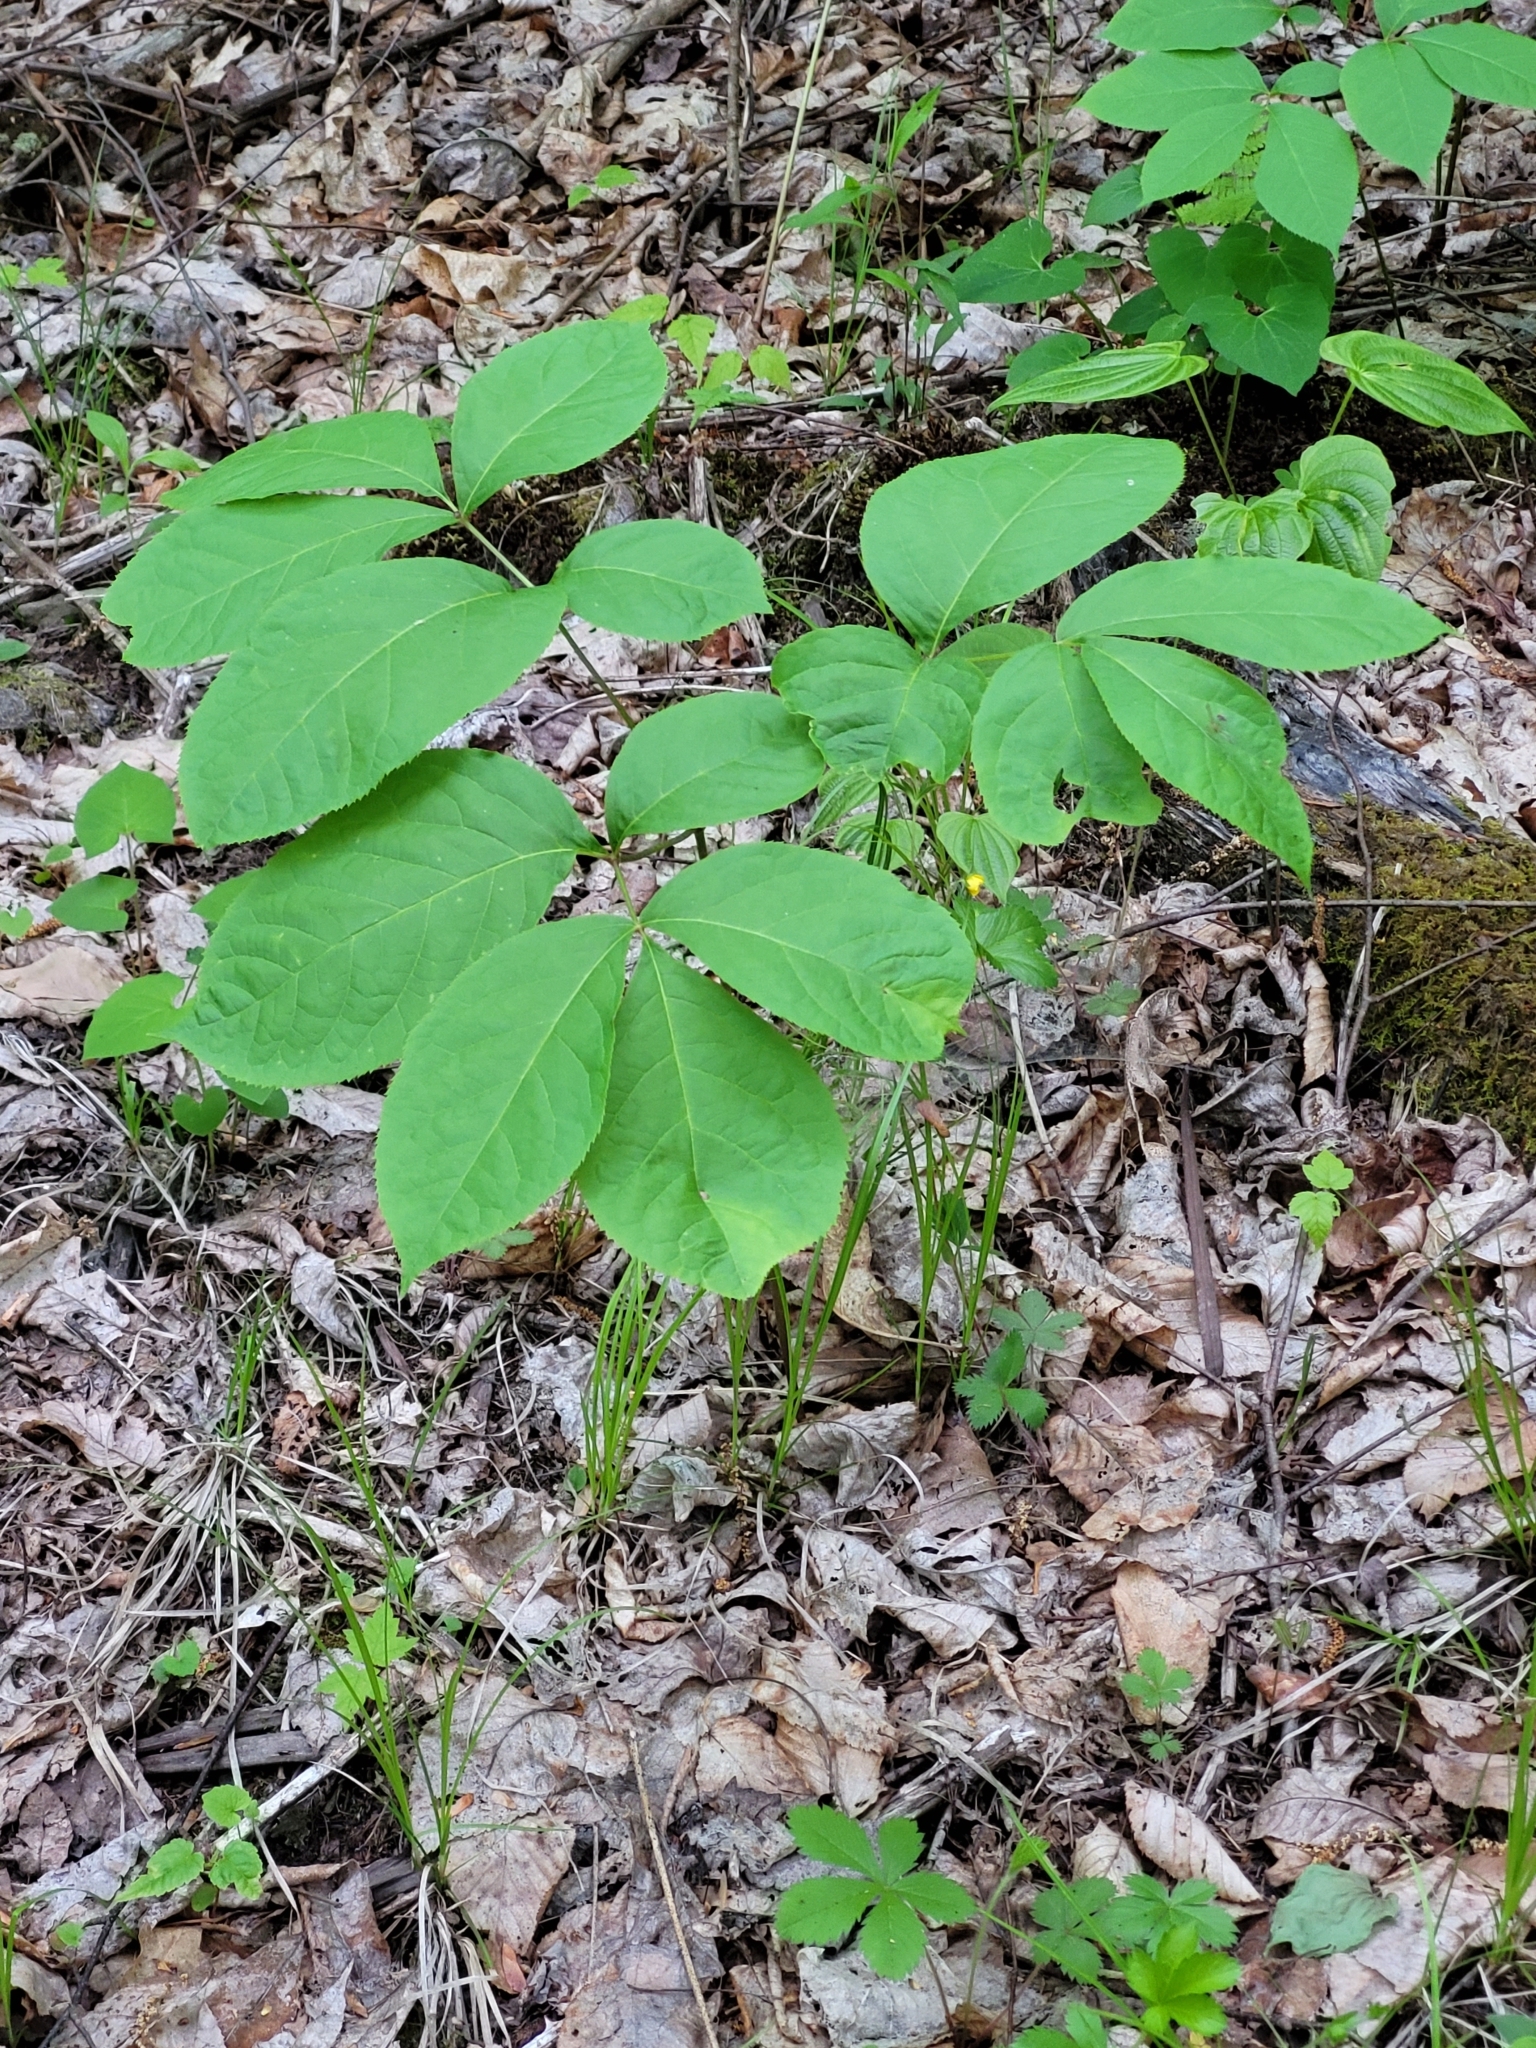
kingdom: Plantae
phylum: Tracheophyta
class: Magnoliopsida
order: Apiales
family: Araliaceae
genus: Aralia
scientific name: Aralia nudicaulis
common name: Wild sarsaparilla
